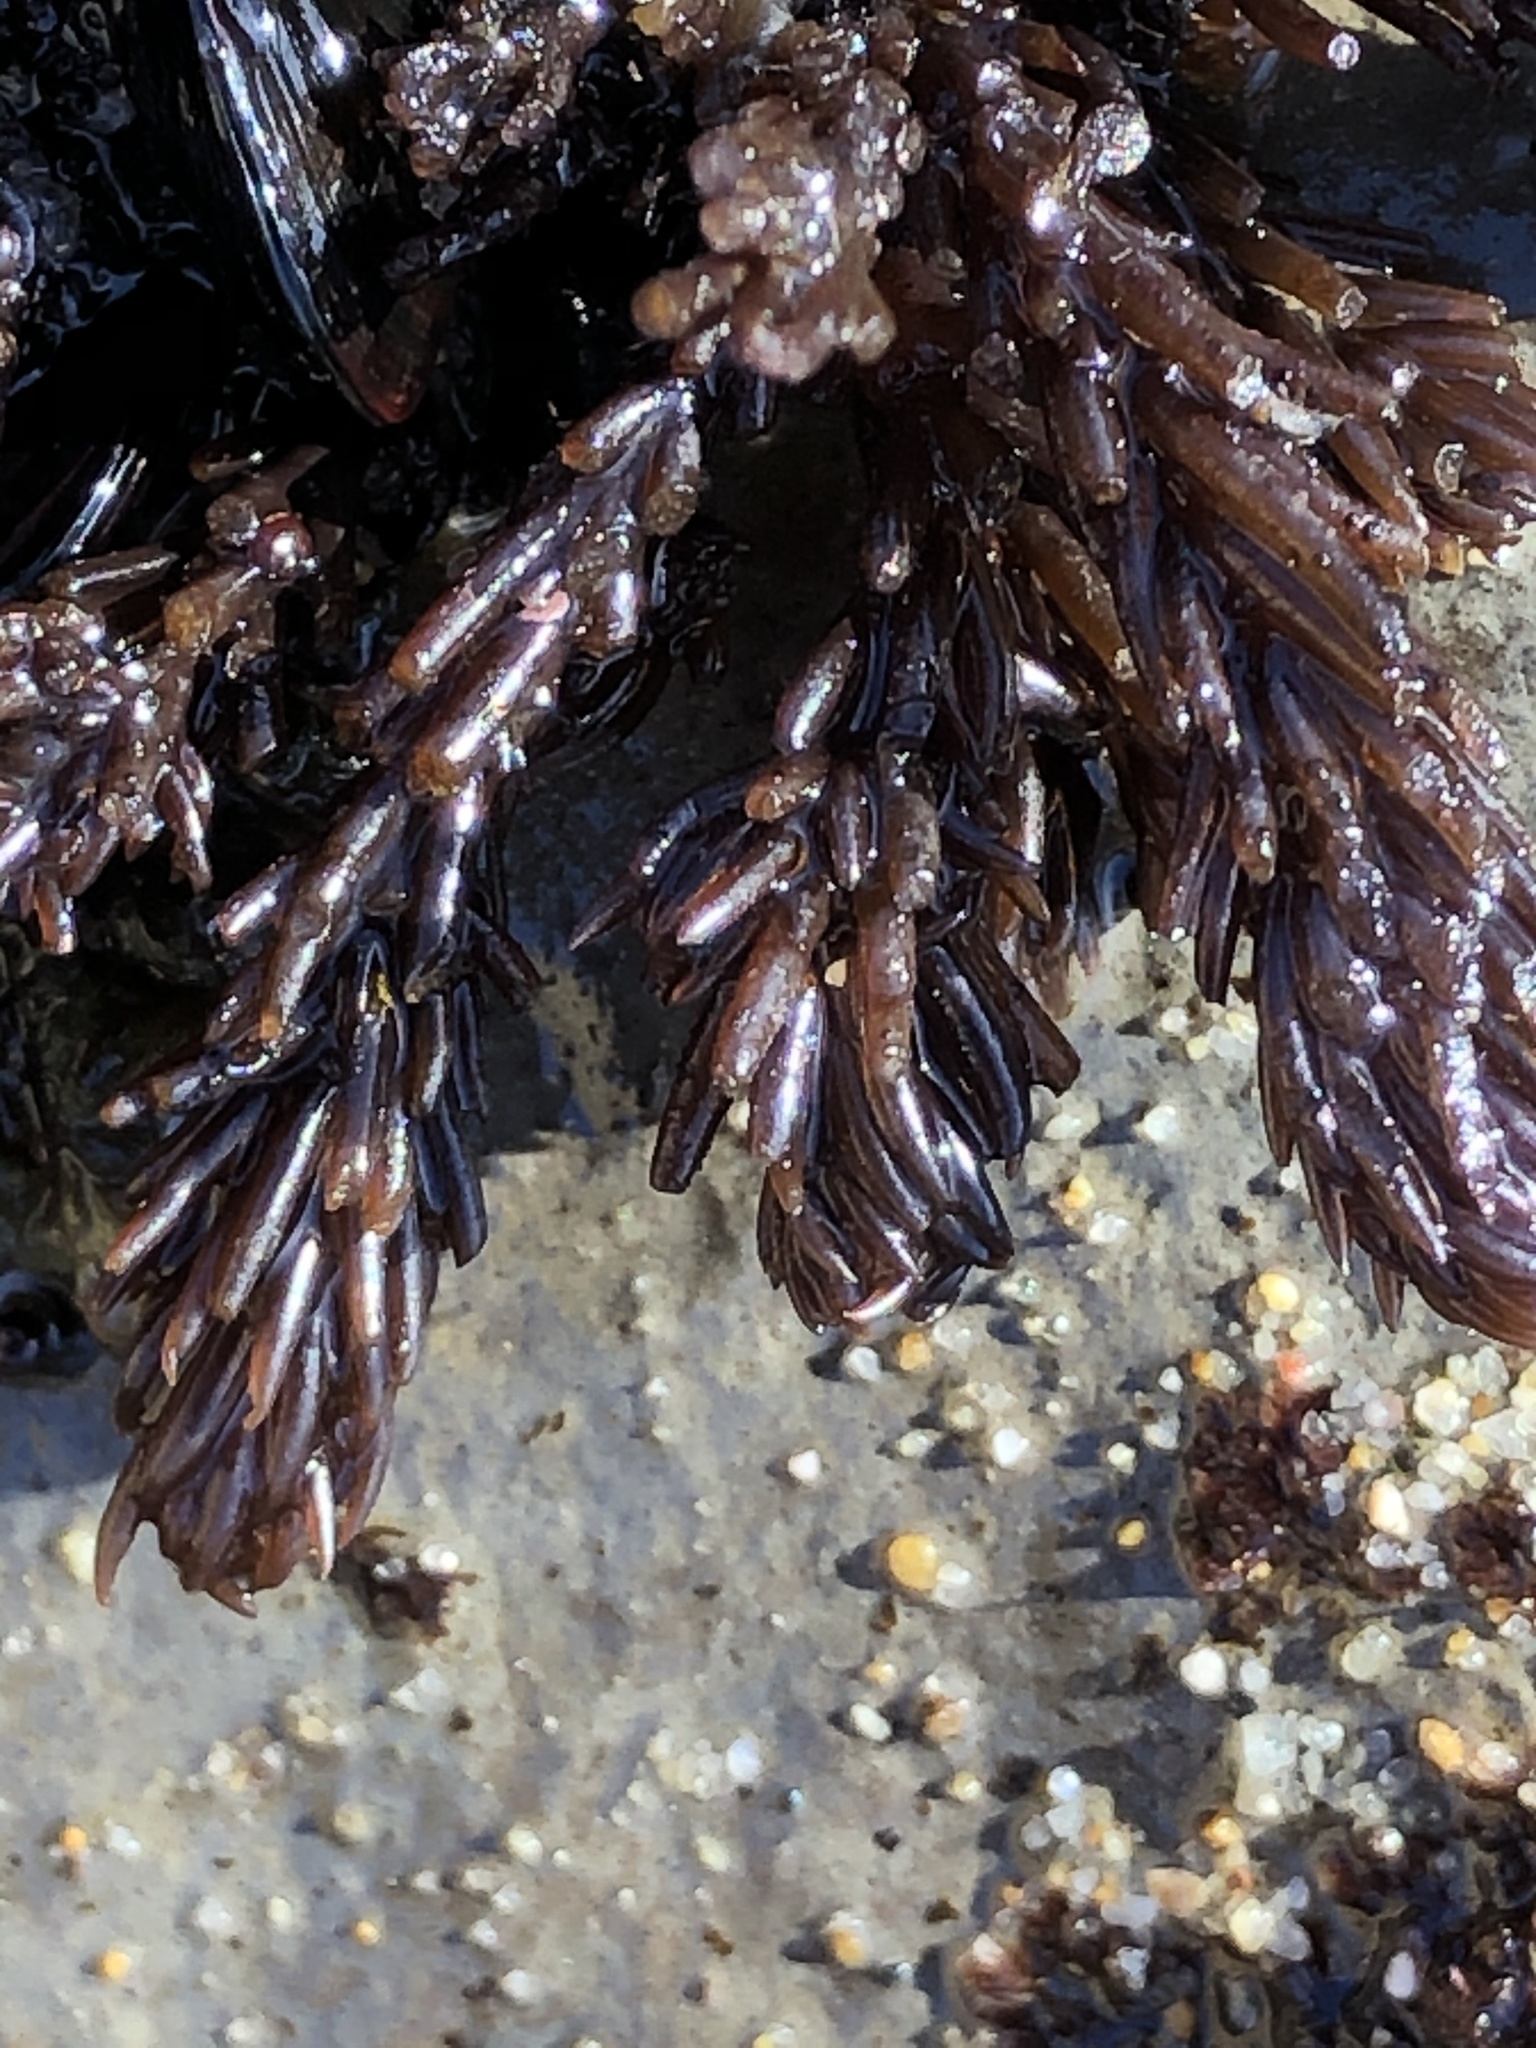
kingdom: Plantae
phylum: Rhodophyta
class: Florideophyceae
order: Ceramiales
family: Rhodomelaceae
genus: Neorhodomela
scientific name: Neorhodomela larix
